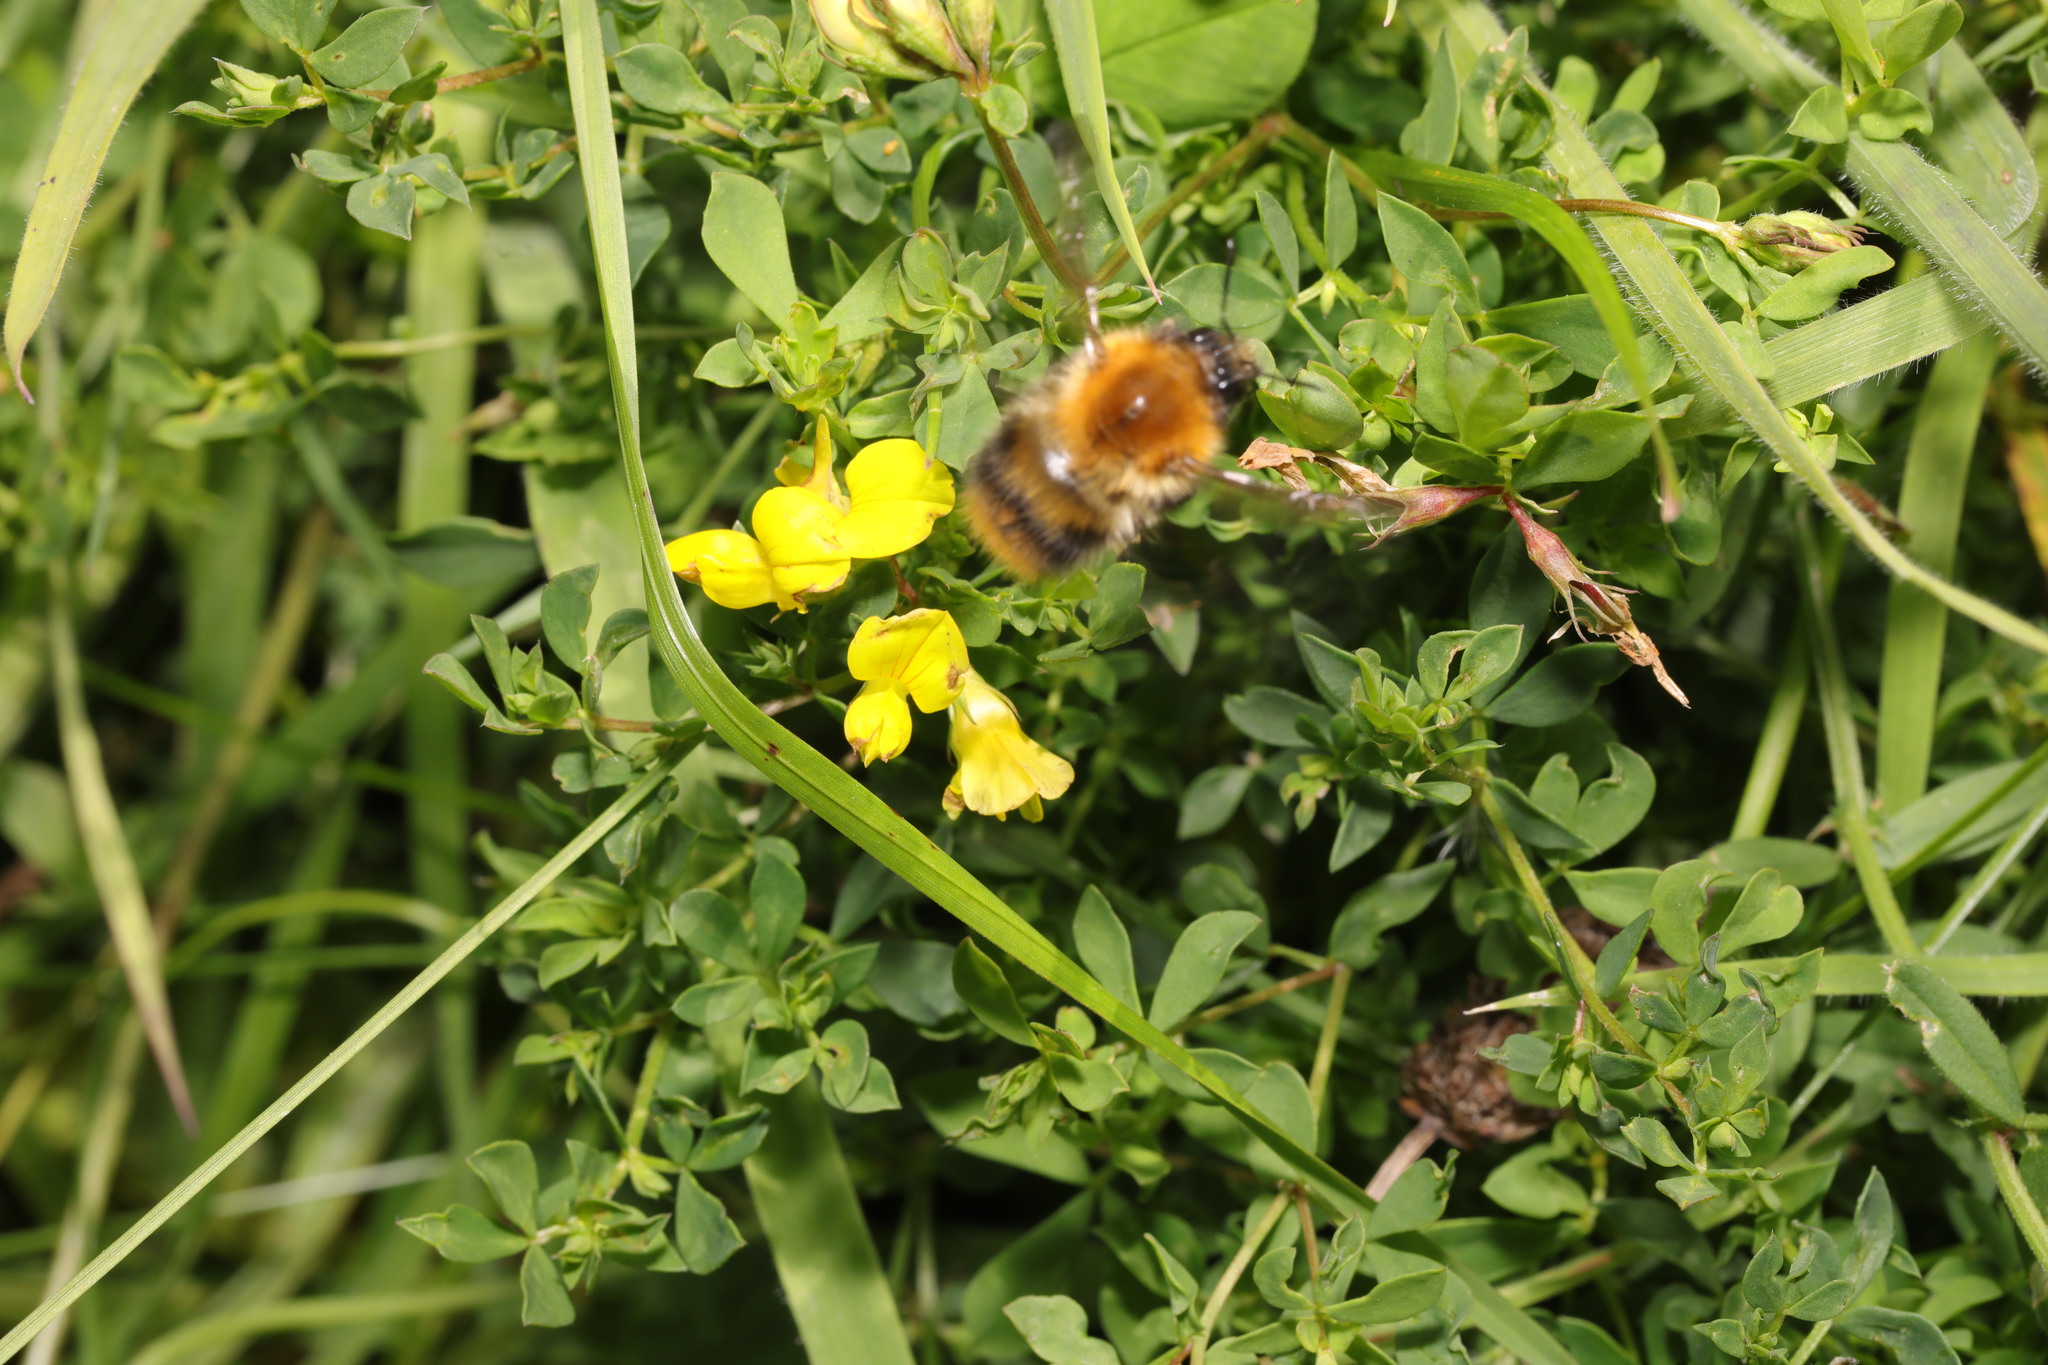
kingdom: Animalia
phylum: Arthropoda
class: Insecta
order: Hymenoptera
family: Apidae
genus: Bombus
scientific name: Bombus pascuorum
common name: Common carder bee
